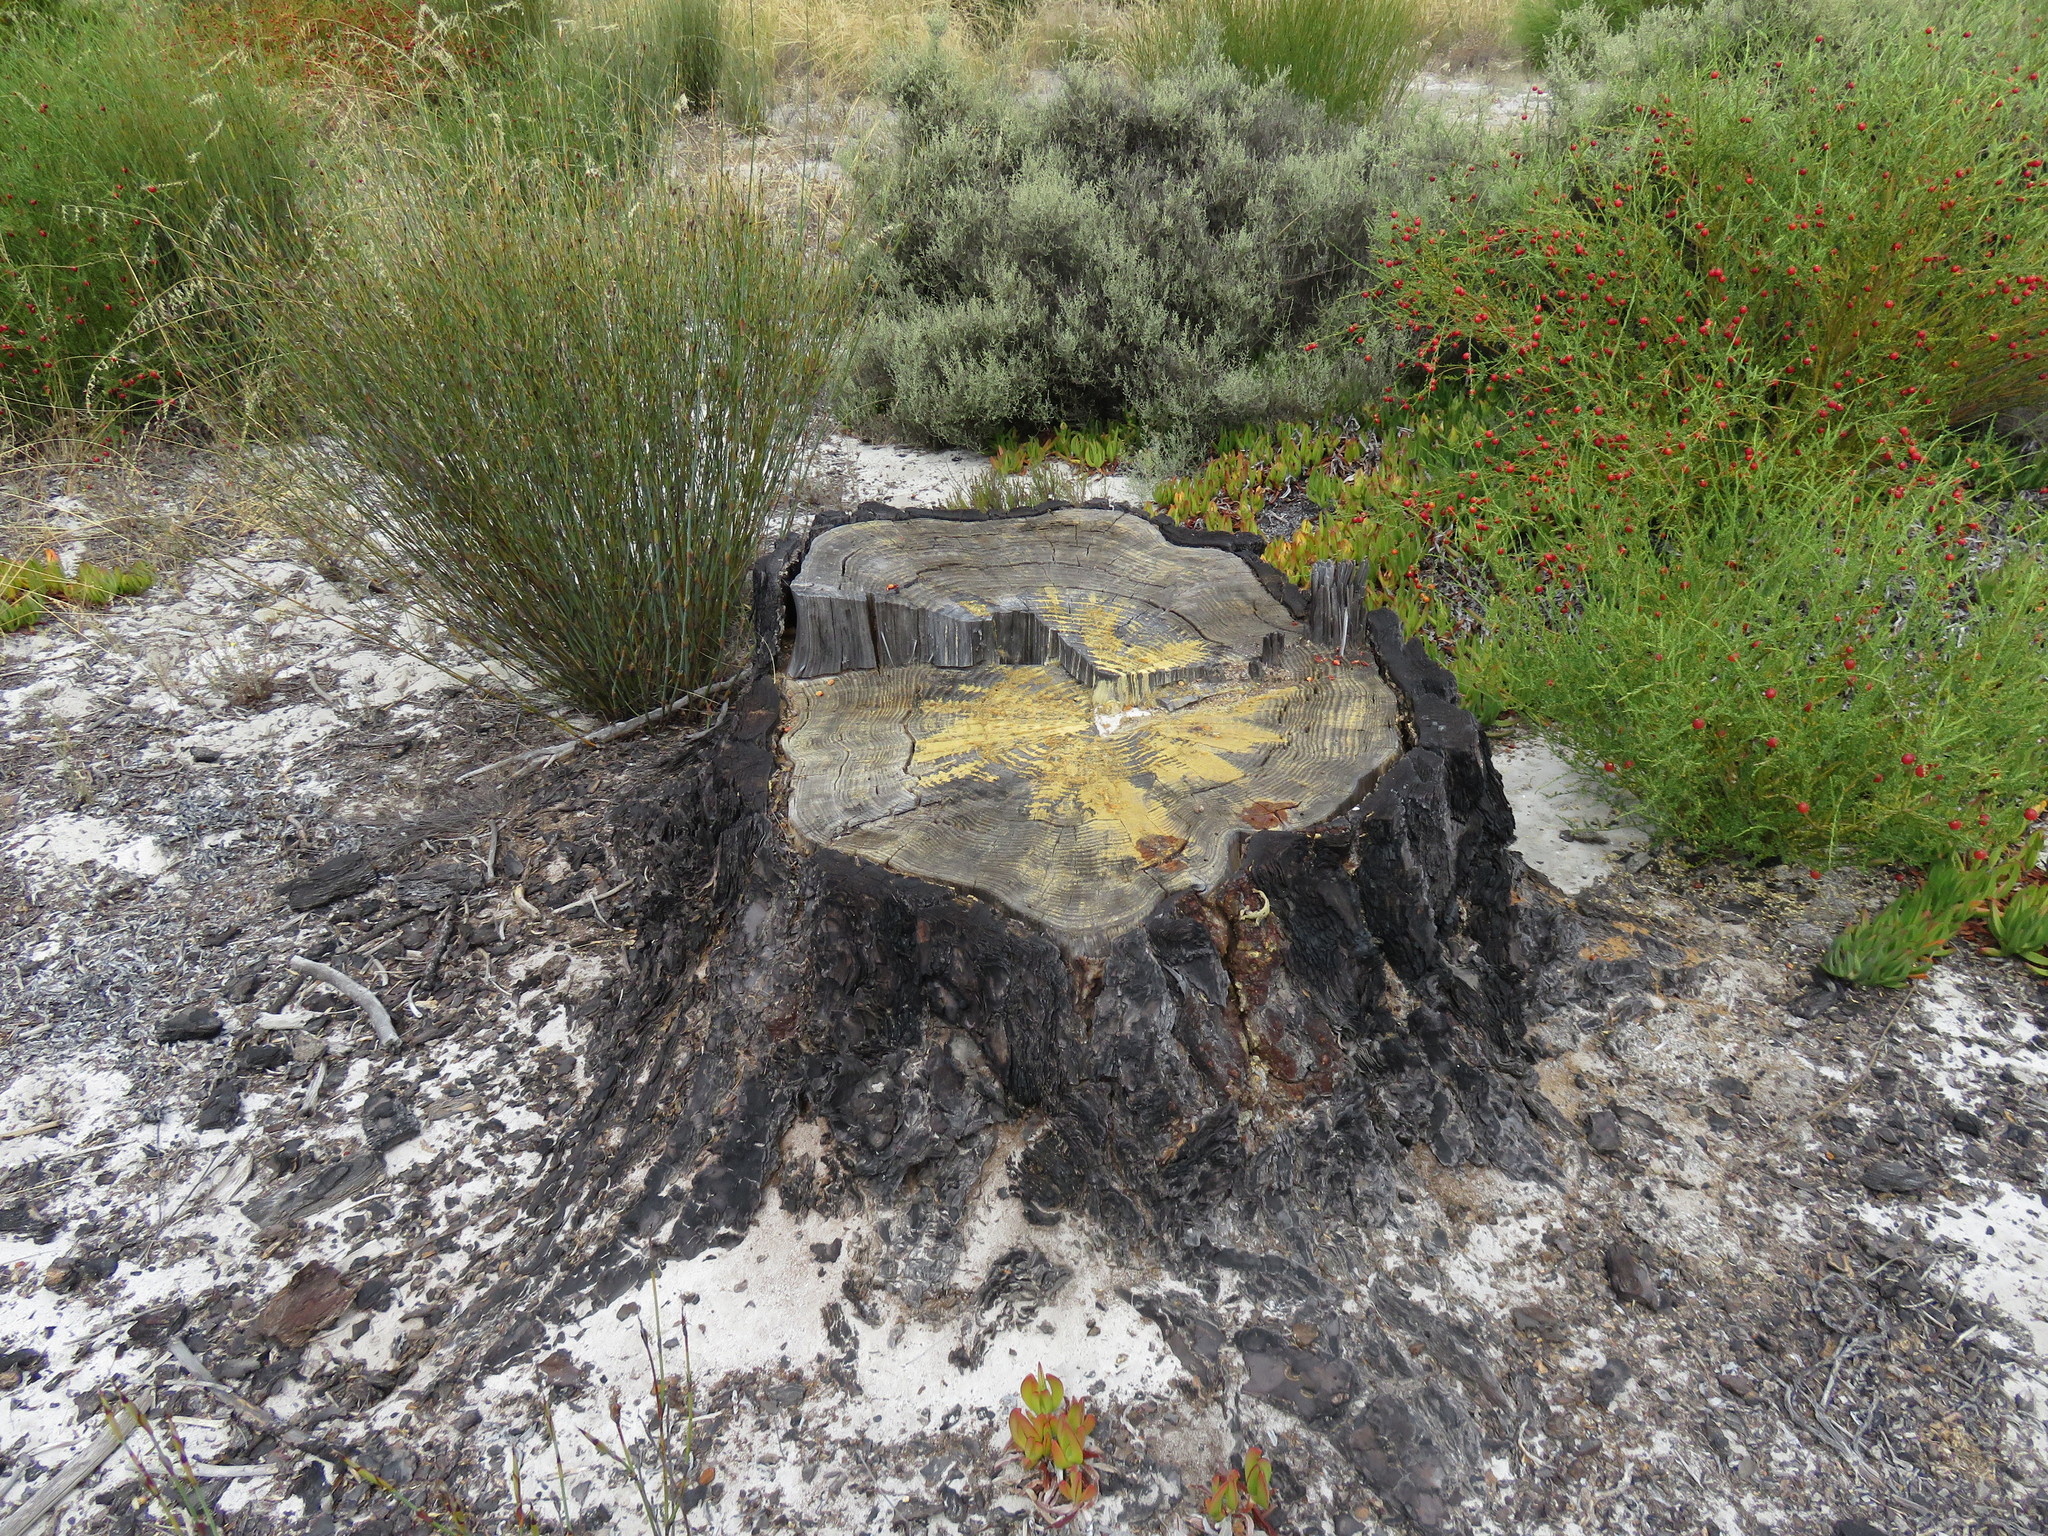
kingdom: Plantae
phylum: Tracheophyta
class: Pinopsida
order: Pinales
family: Pinaceae
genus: Pinus
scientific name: Pinus radiata
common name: Monterey pine
